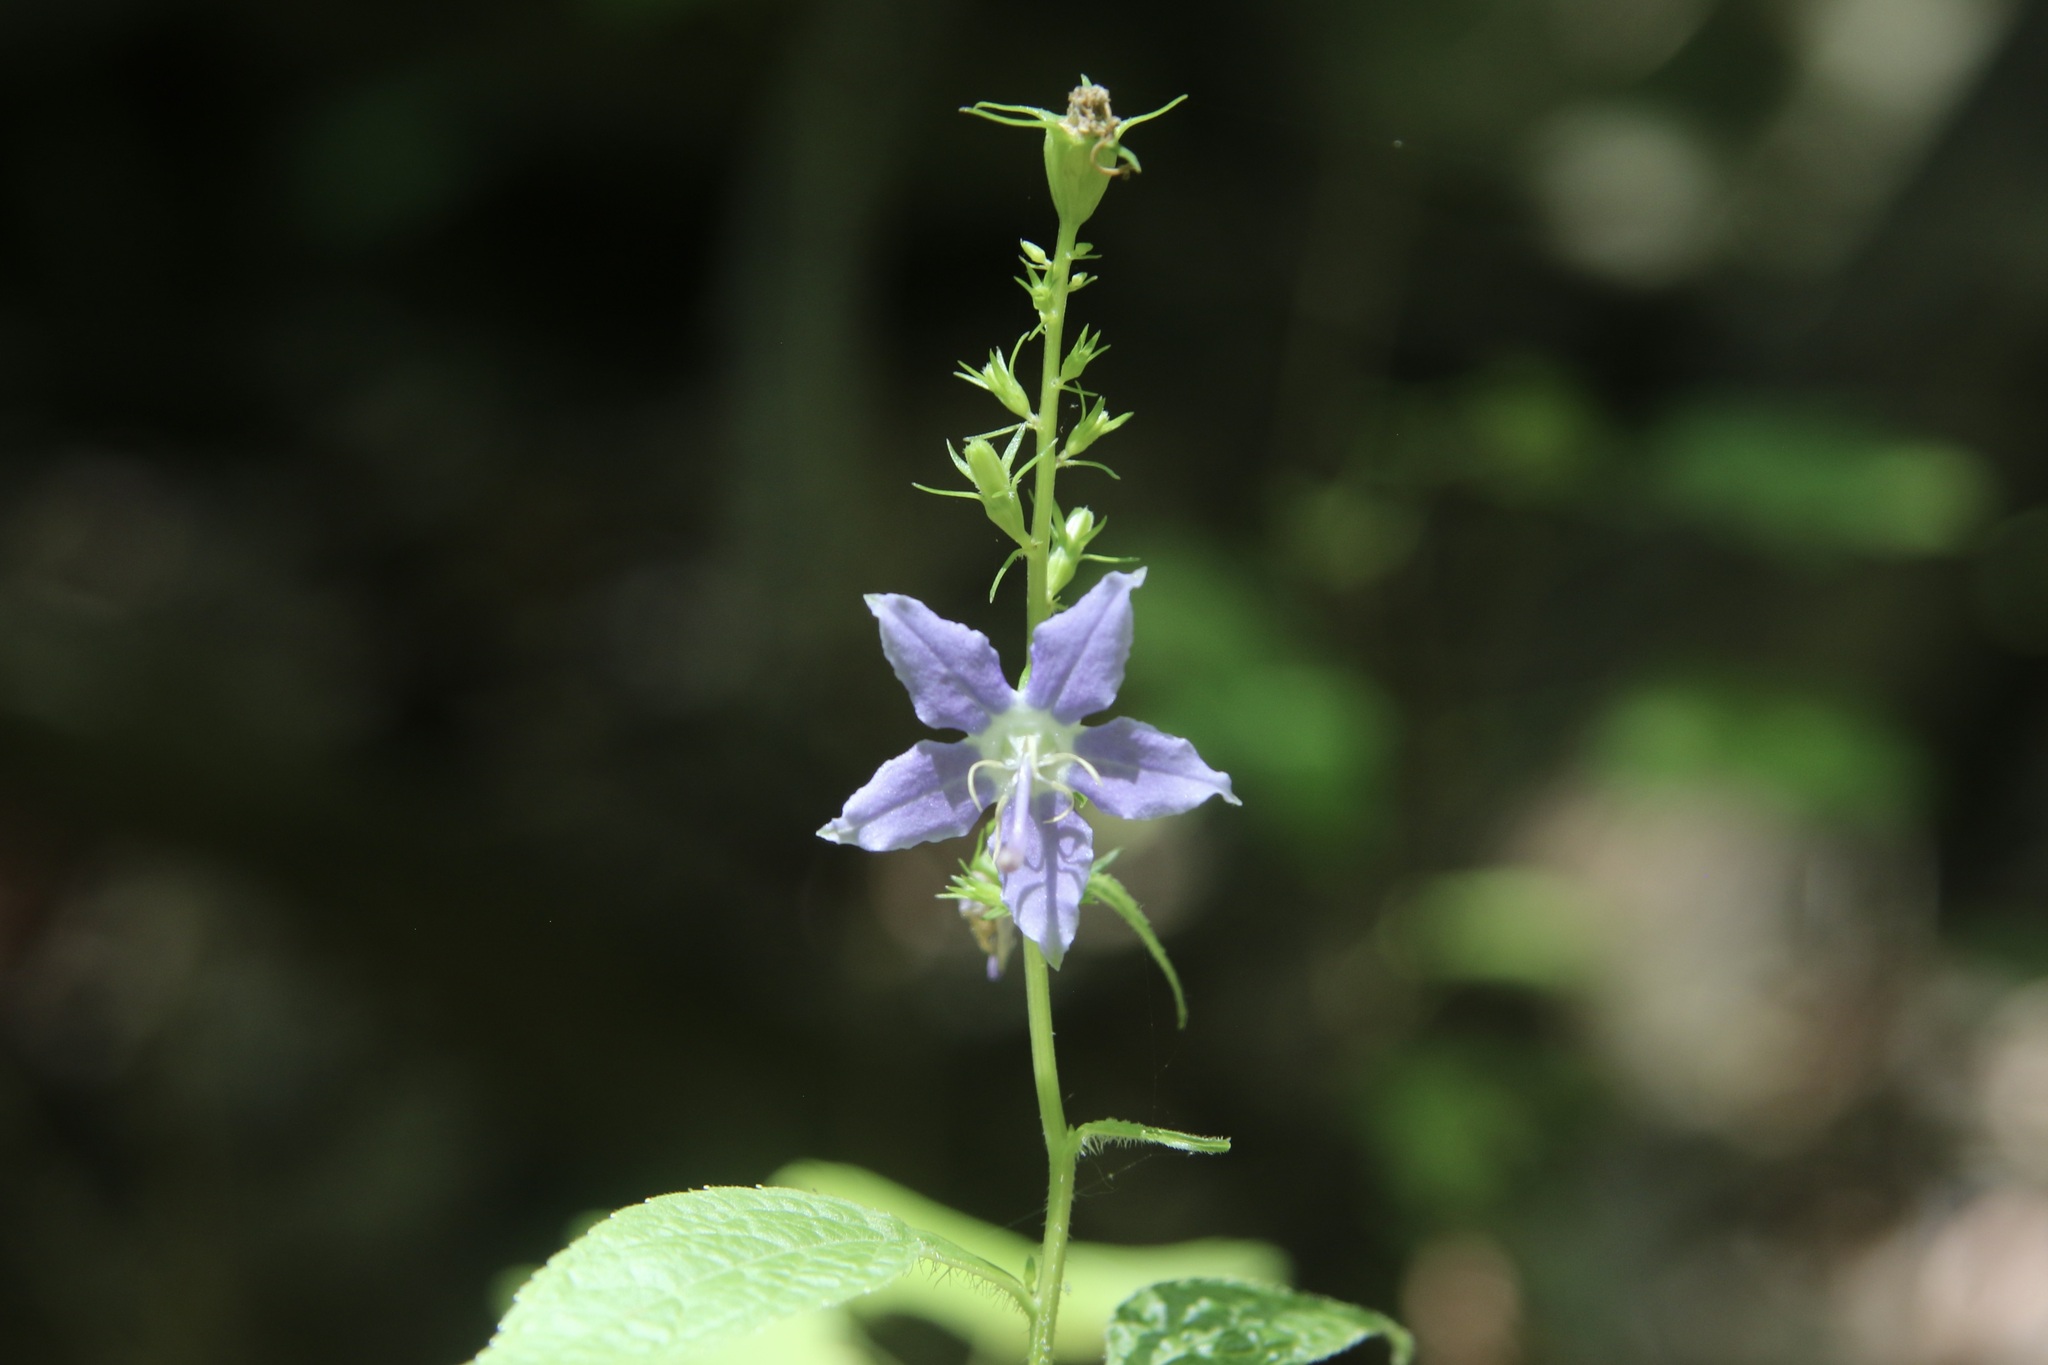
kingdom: Plantae
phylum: Tracheophyta
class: Magnoliopsida
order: Asterales
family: Campanulaceae
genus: Campanulastrum
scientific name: Campanulastrum americanum
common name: American bellflower
